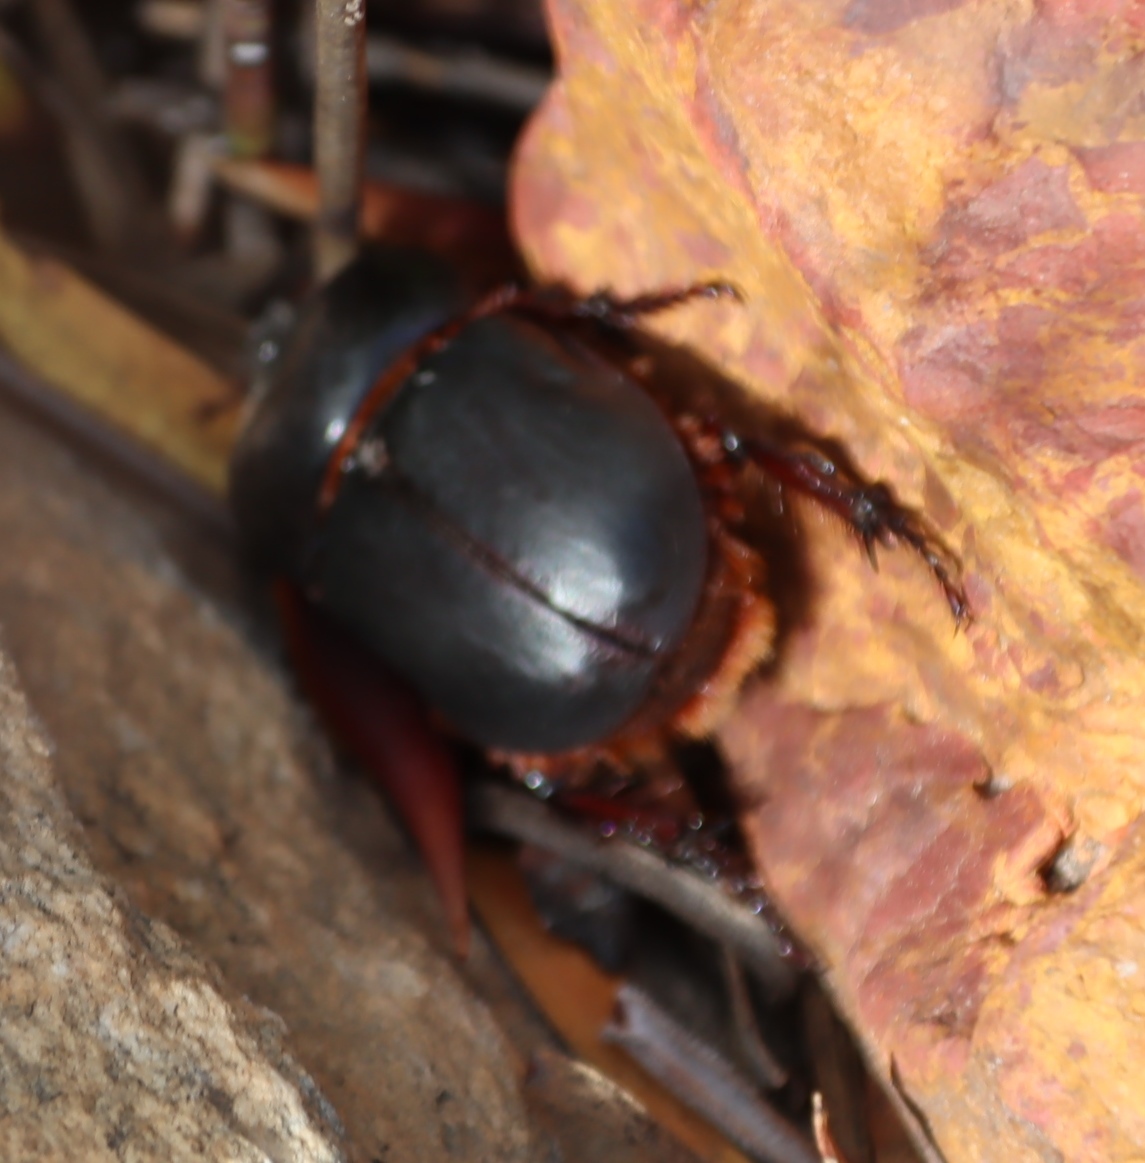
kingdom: Animalia
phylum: Arthropoda
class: Insecta
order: Coleoptera
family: Scarabaeidae
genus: Orsilochus
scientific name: Orsilochus cornutus
